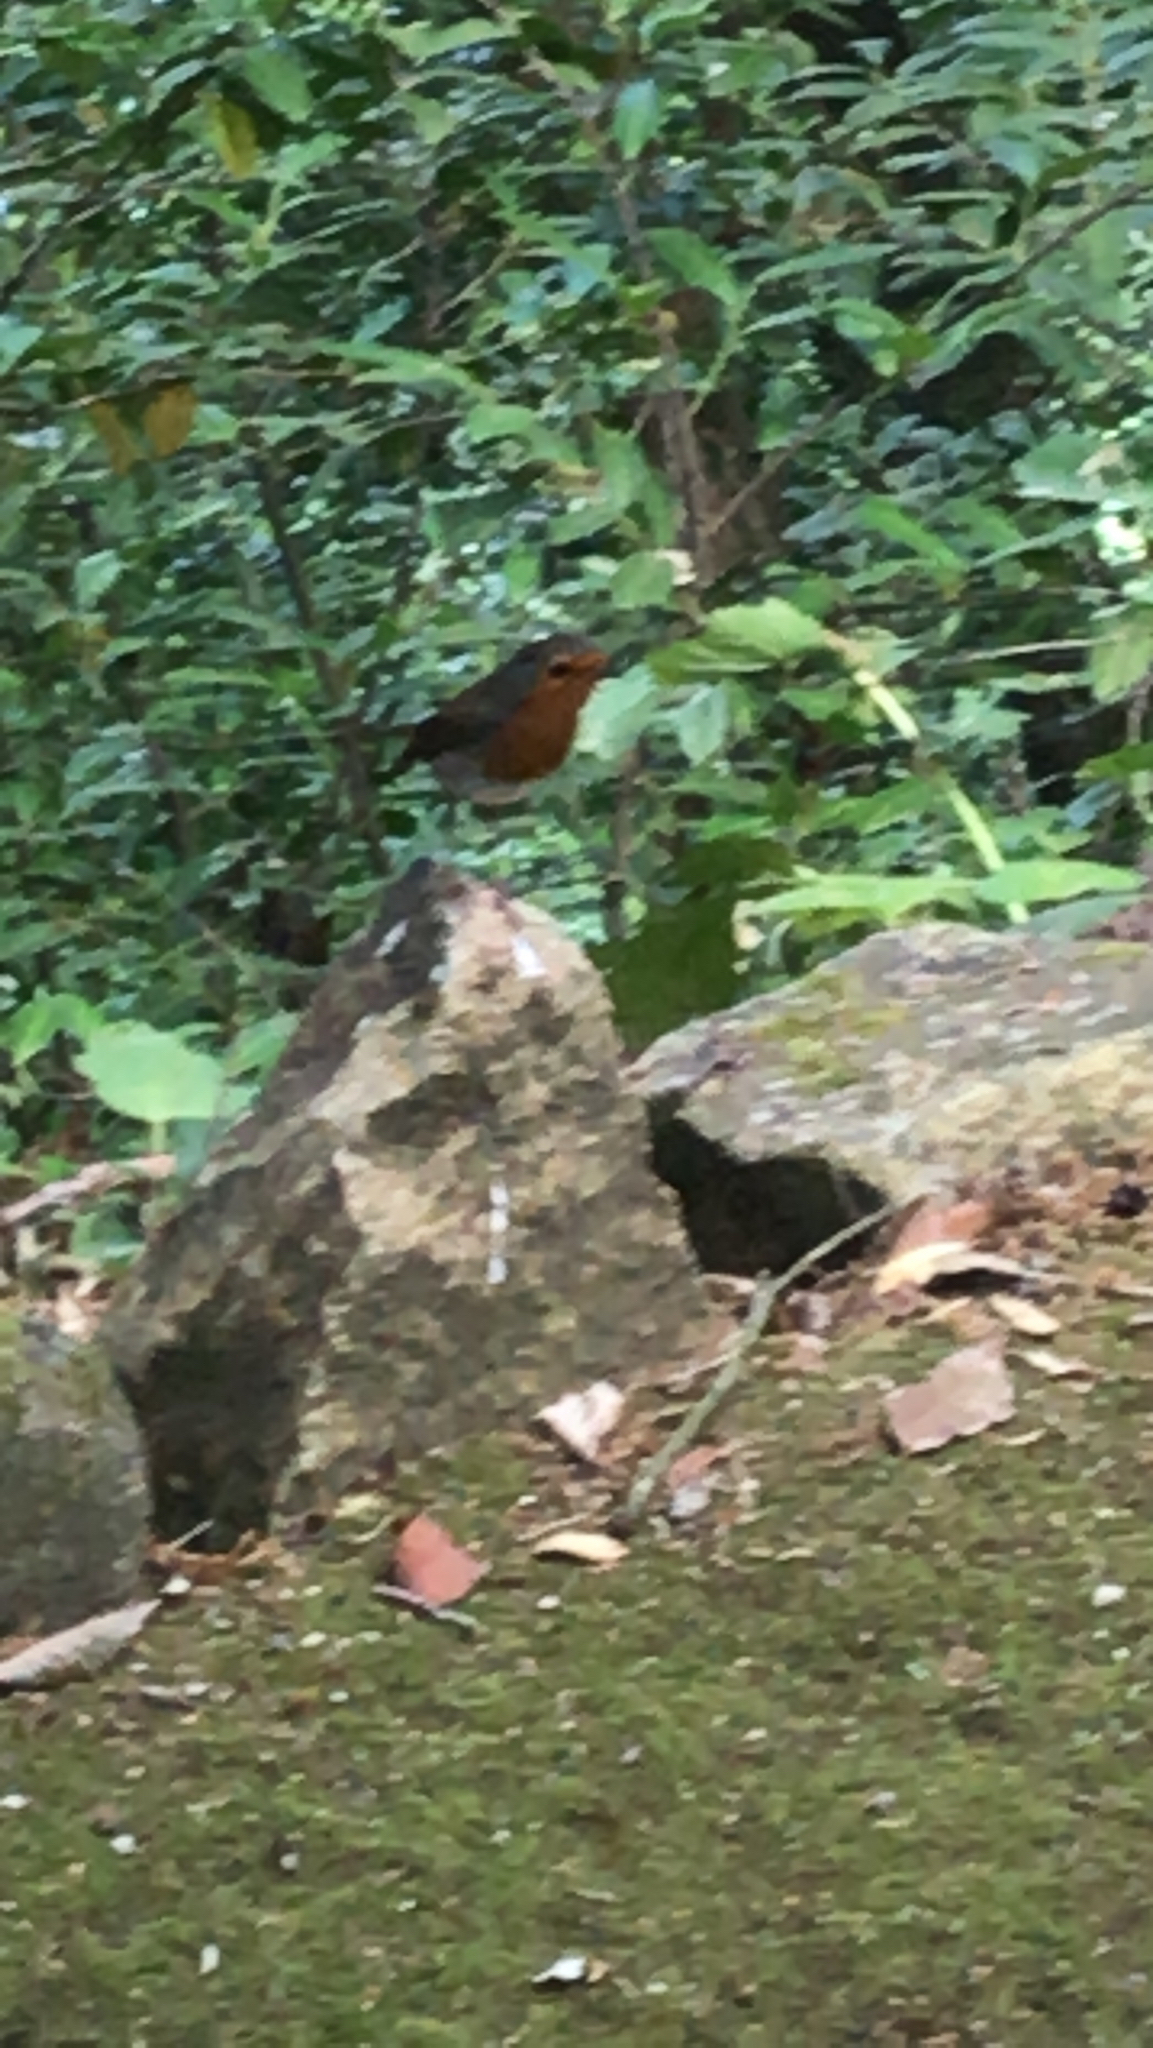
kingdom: Animalia
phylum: Chordata
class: Aves
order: Passeriformes
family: Muscicapidae
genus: Erithacus
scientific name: Erithacus rubecula
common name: European robin
